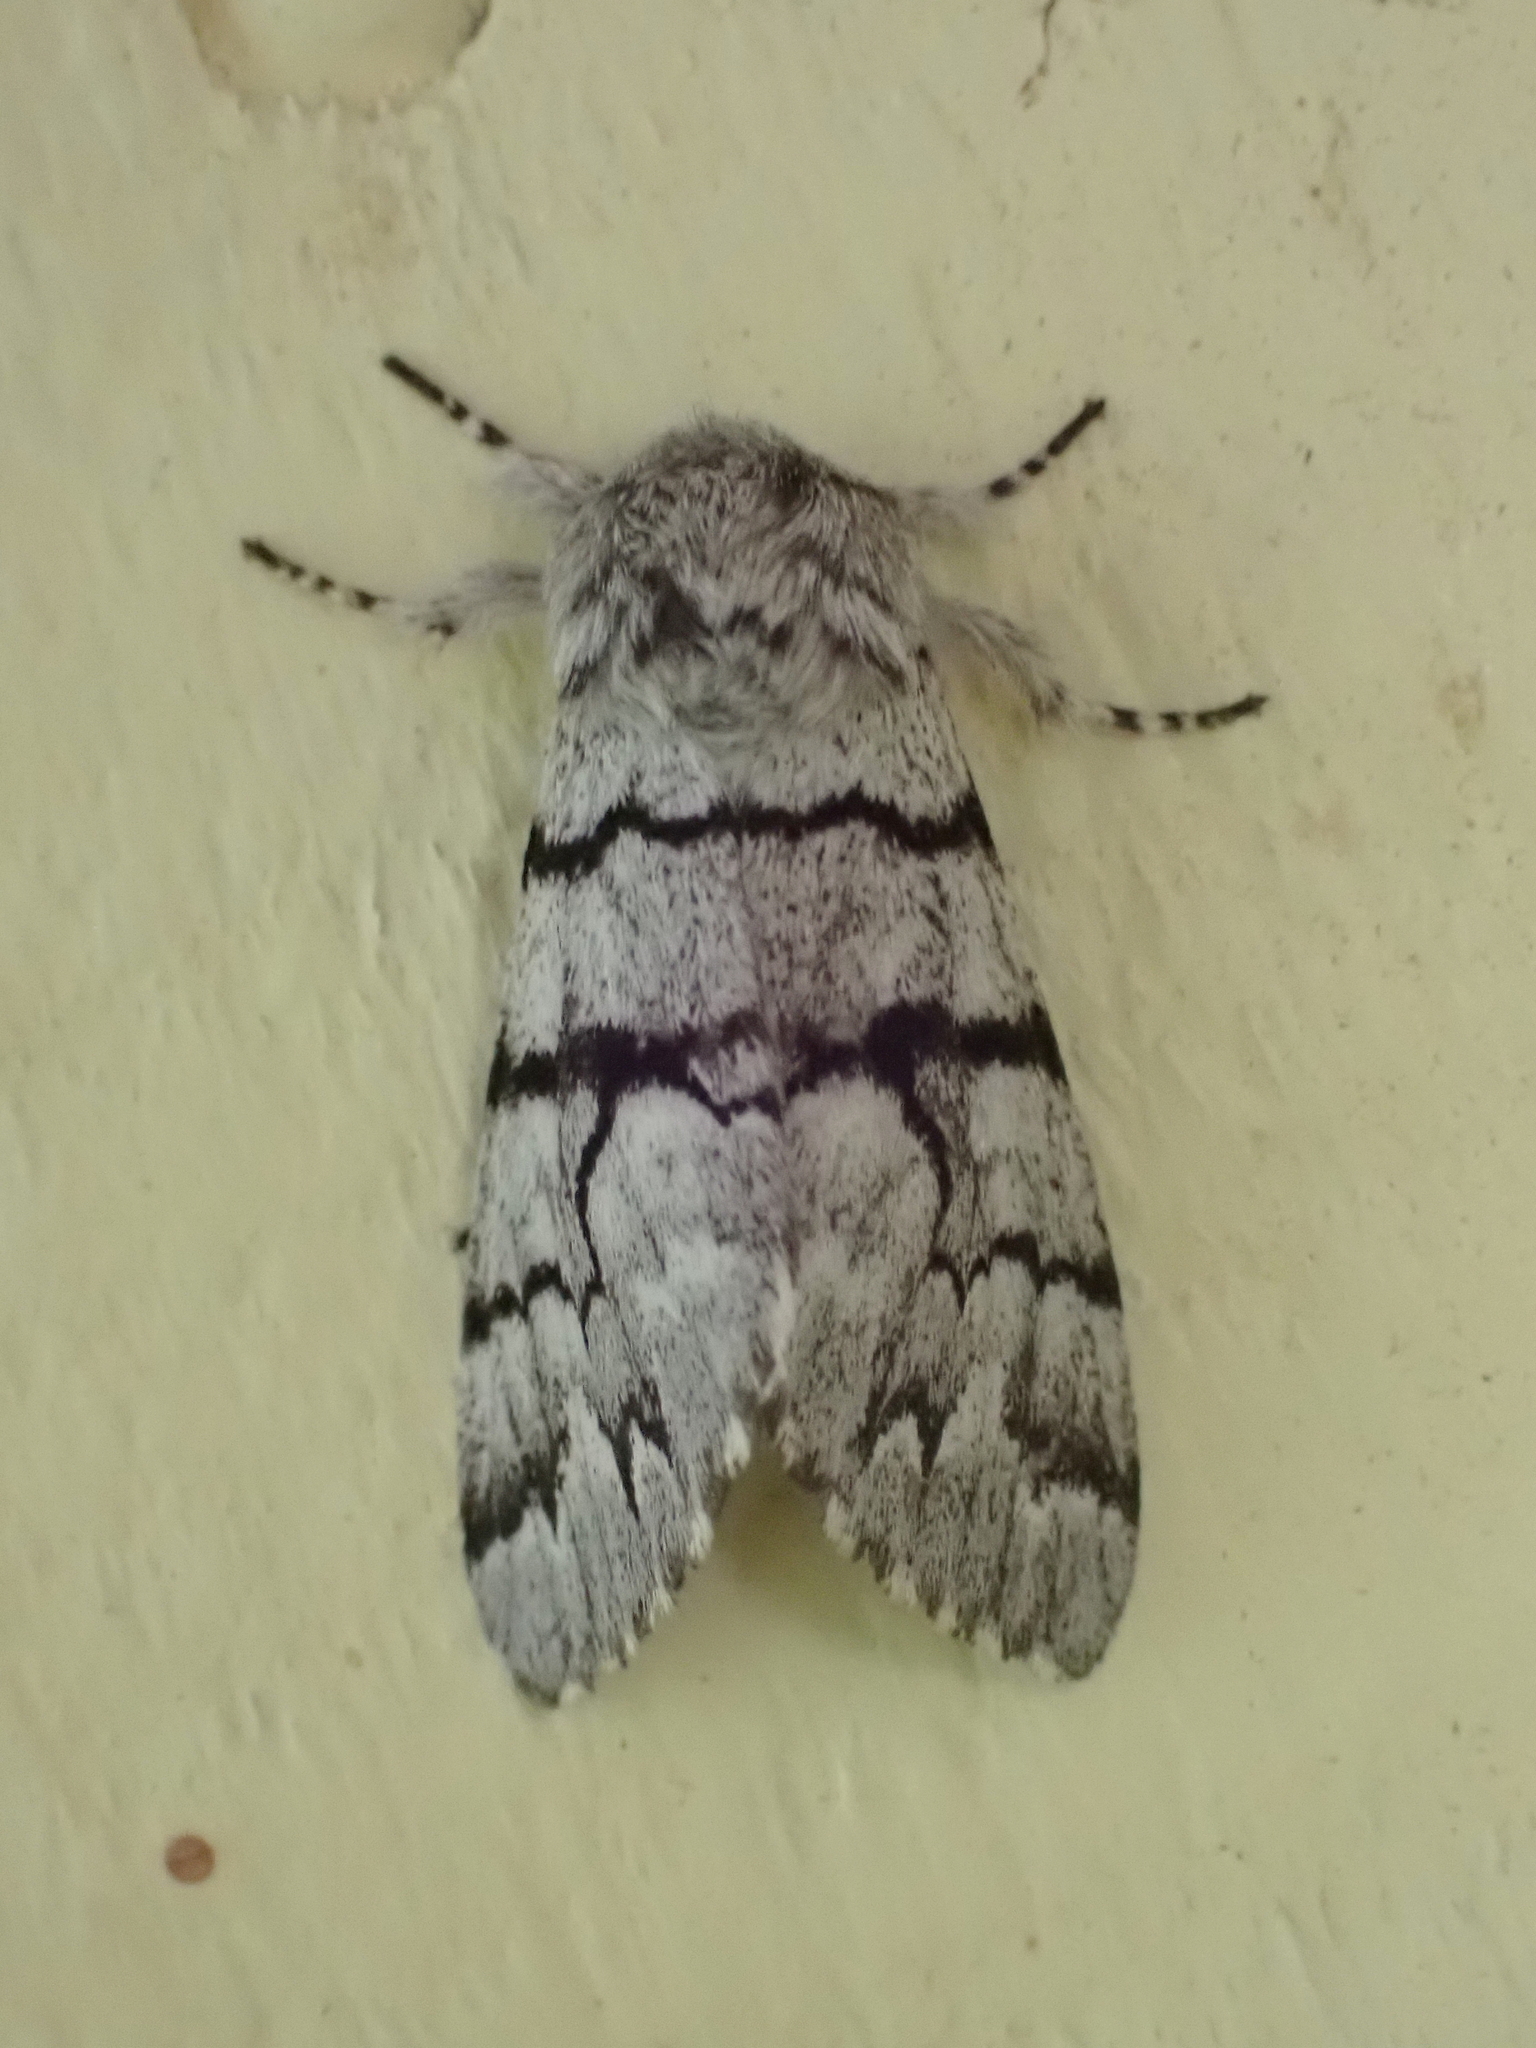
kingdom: Animalia
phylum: Arthropoda
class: Insecta
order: Lepidoptera
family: Noctuidae
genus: Panthea
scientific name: Panthea furcilla
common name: Eastern panthea moth
